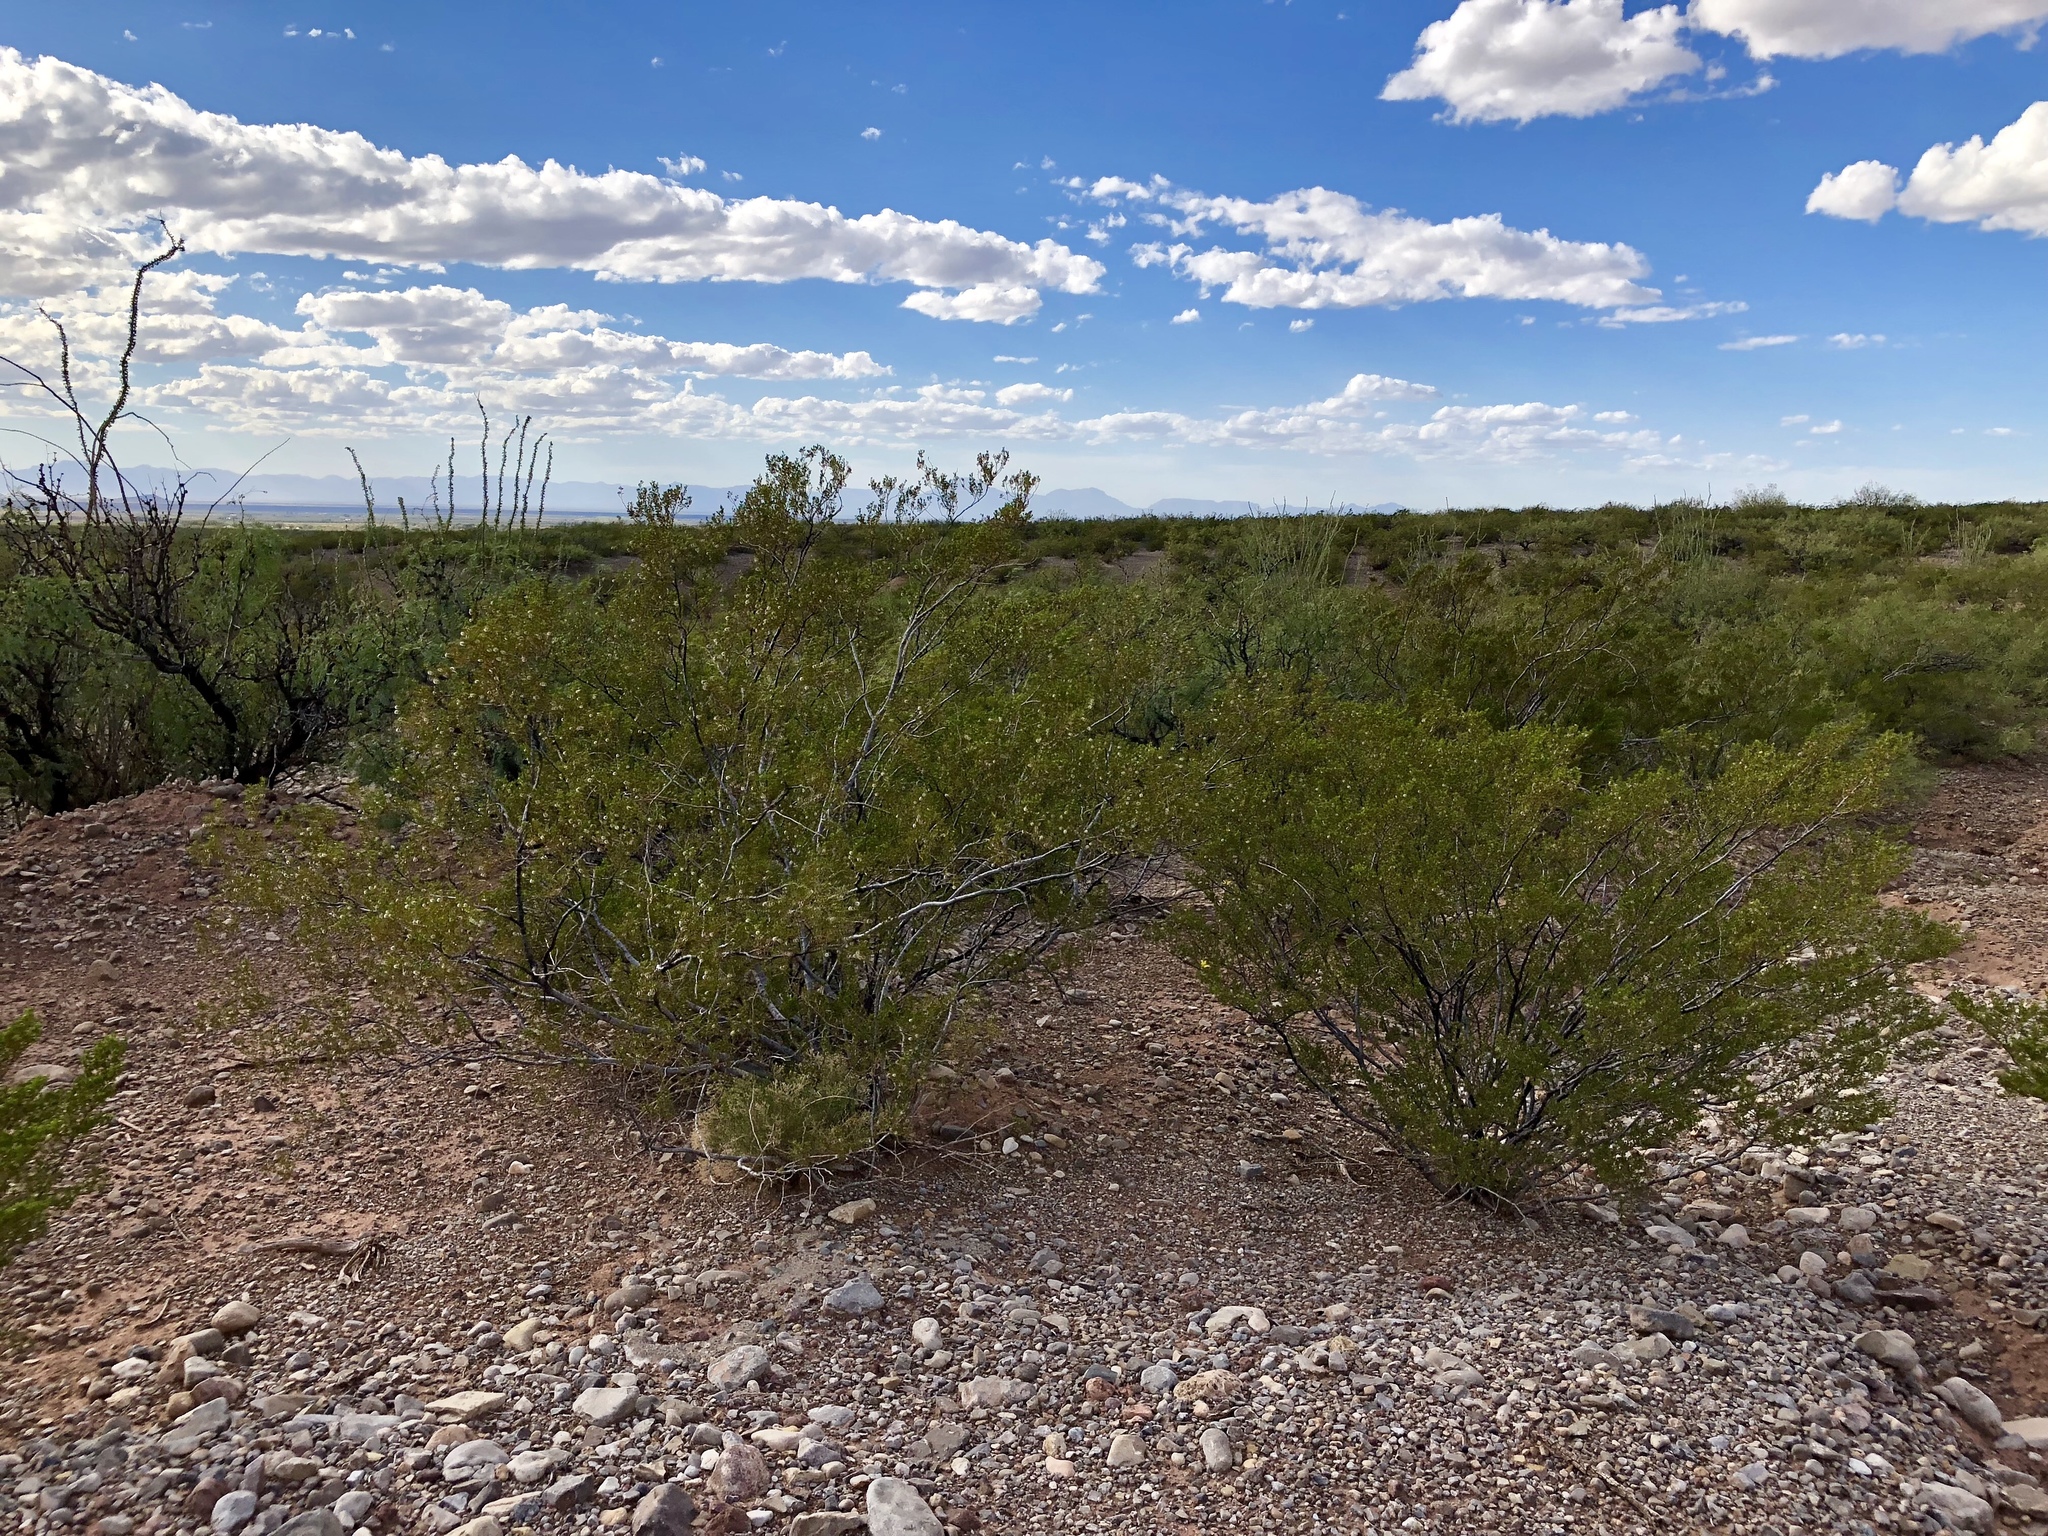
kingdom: Plantae
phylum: Tracheophyta
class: Magnoliopsida
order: Zygophyllales
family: Zygophyllaceae
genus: Larrea
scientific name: Larrea tridentata
